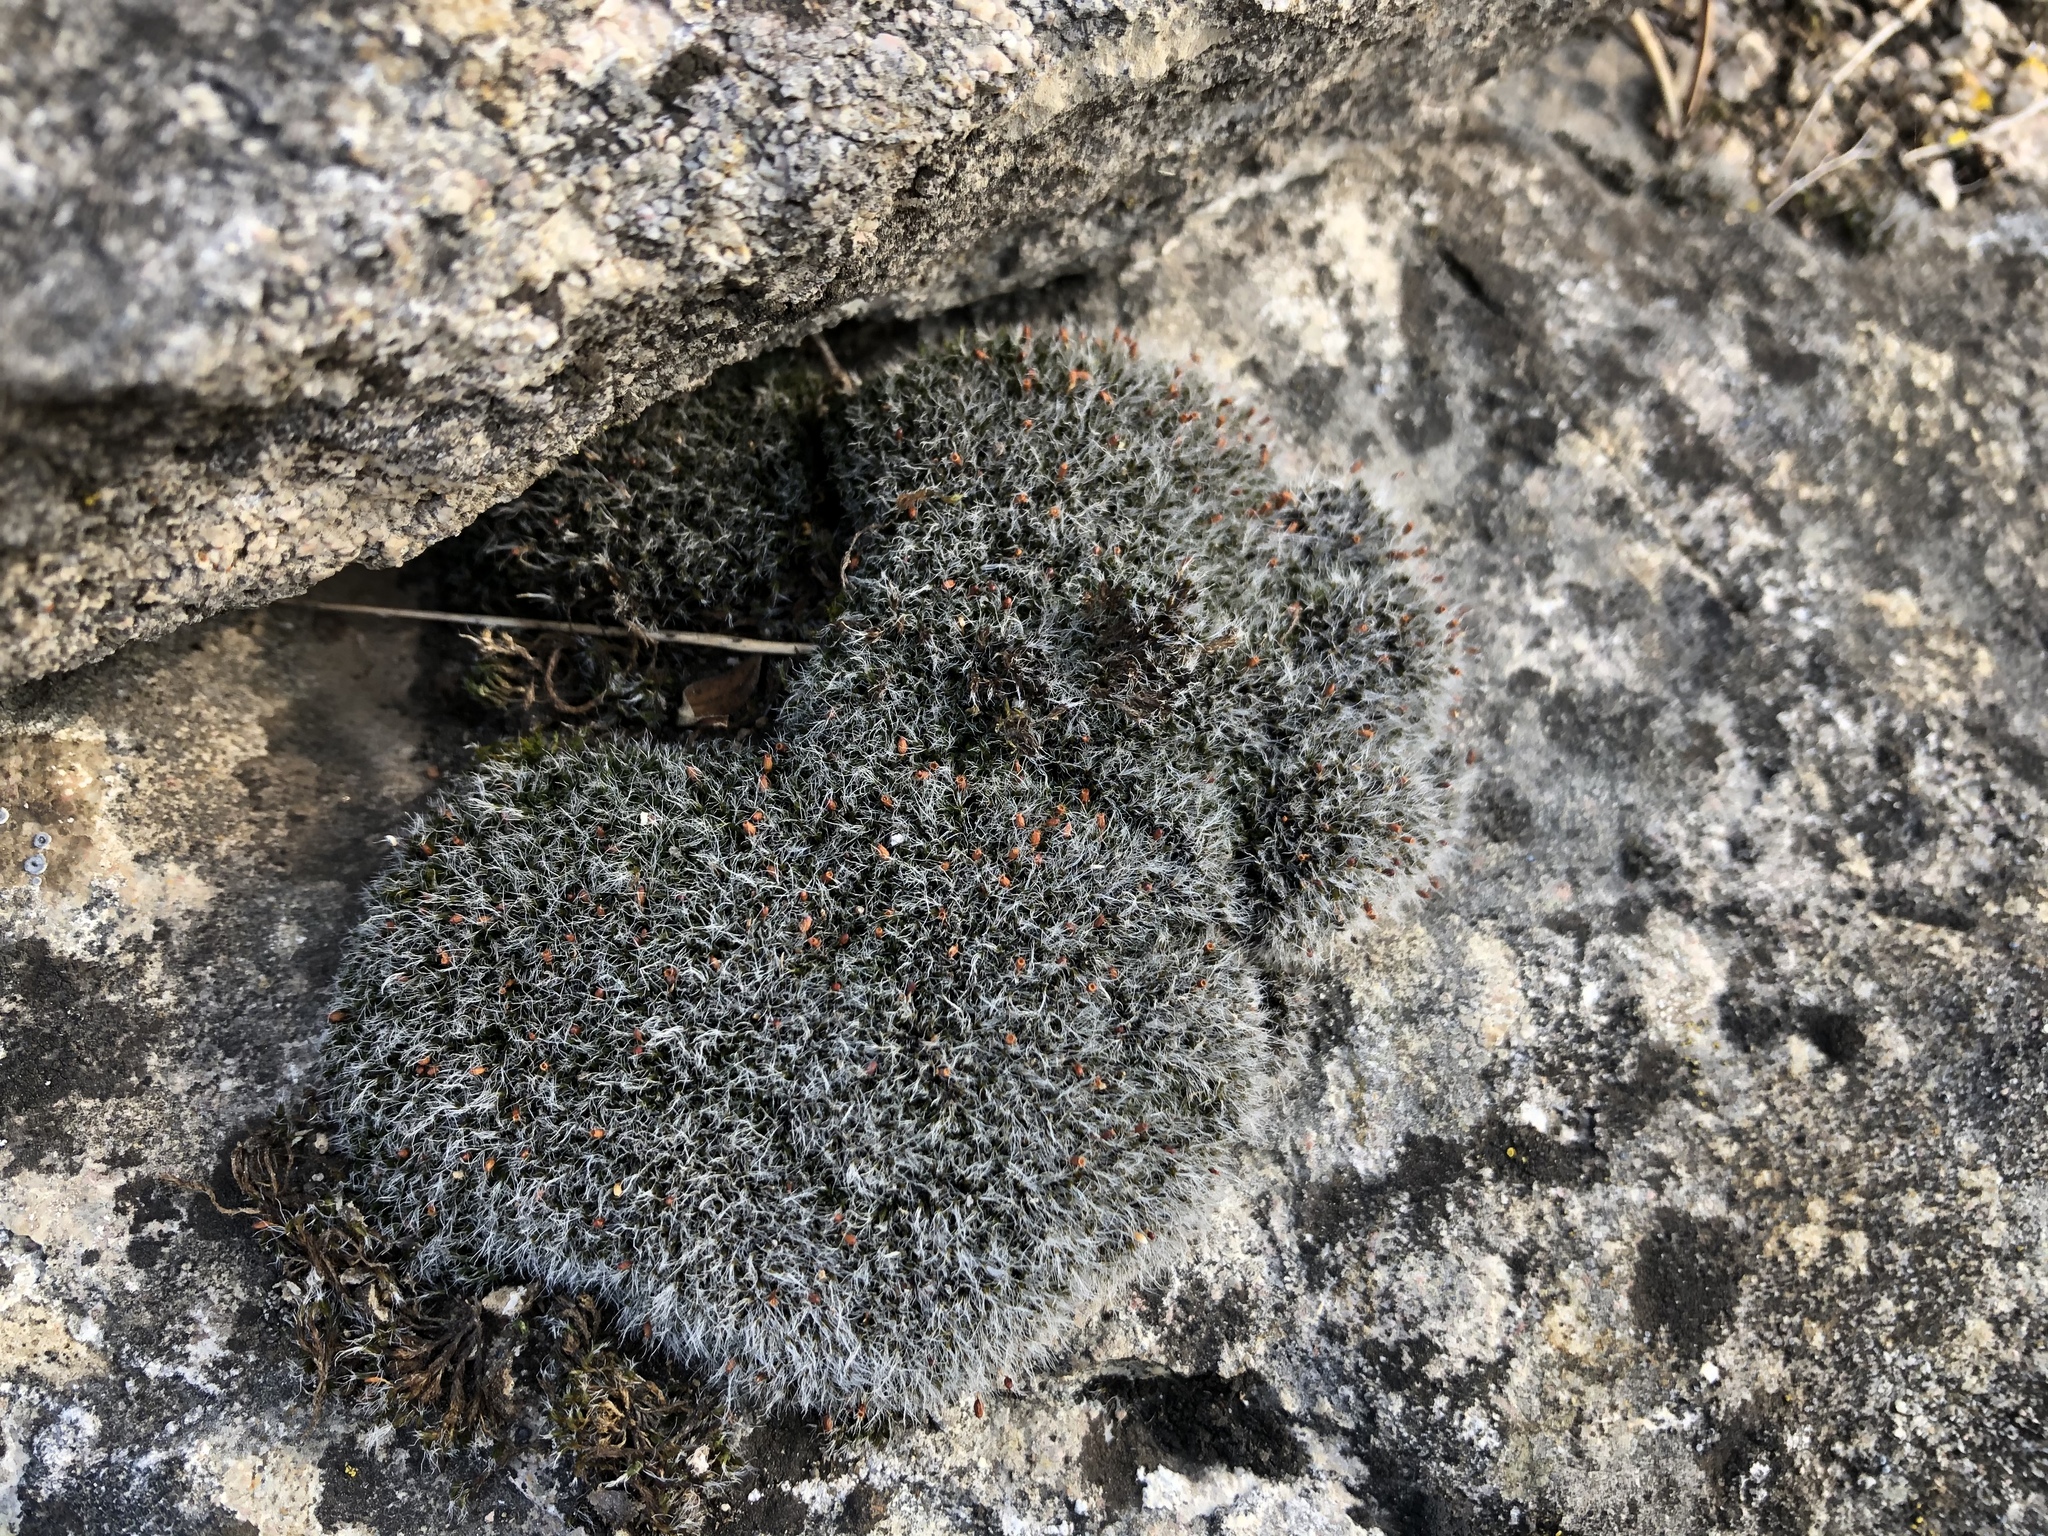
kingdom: Plantae
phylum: Bryophyta
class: Bryopsida
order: Grimmiales
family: Grimmiaceae
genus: Grimmia
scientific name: Grimmia pulvinata
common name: Grey-cushioned grimmia
